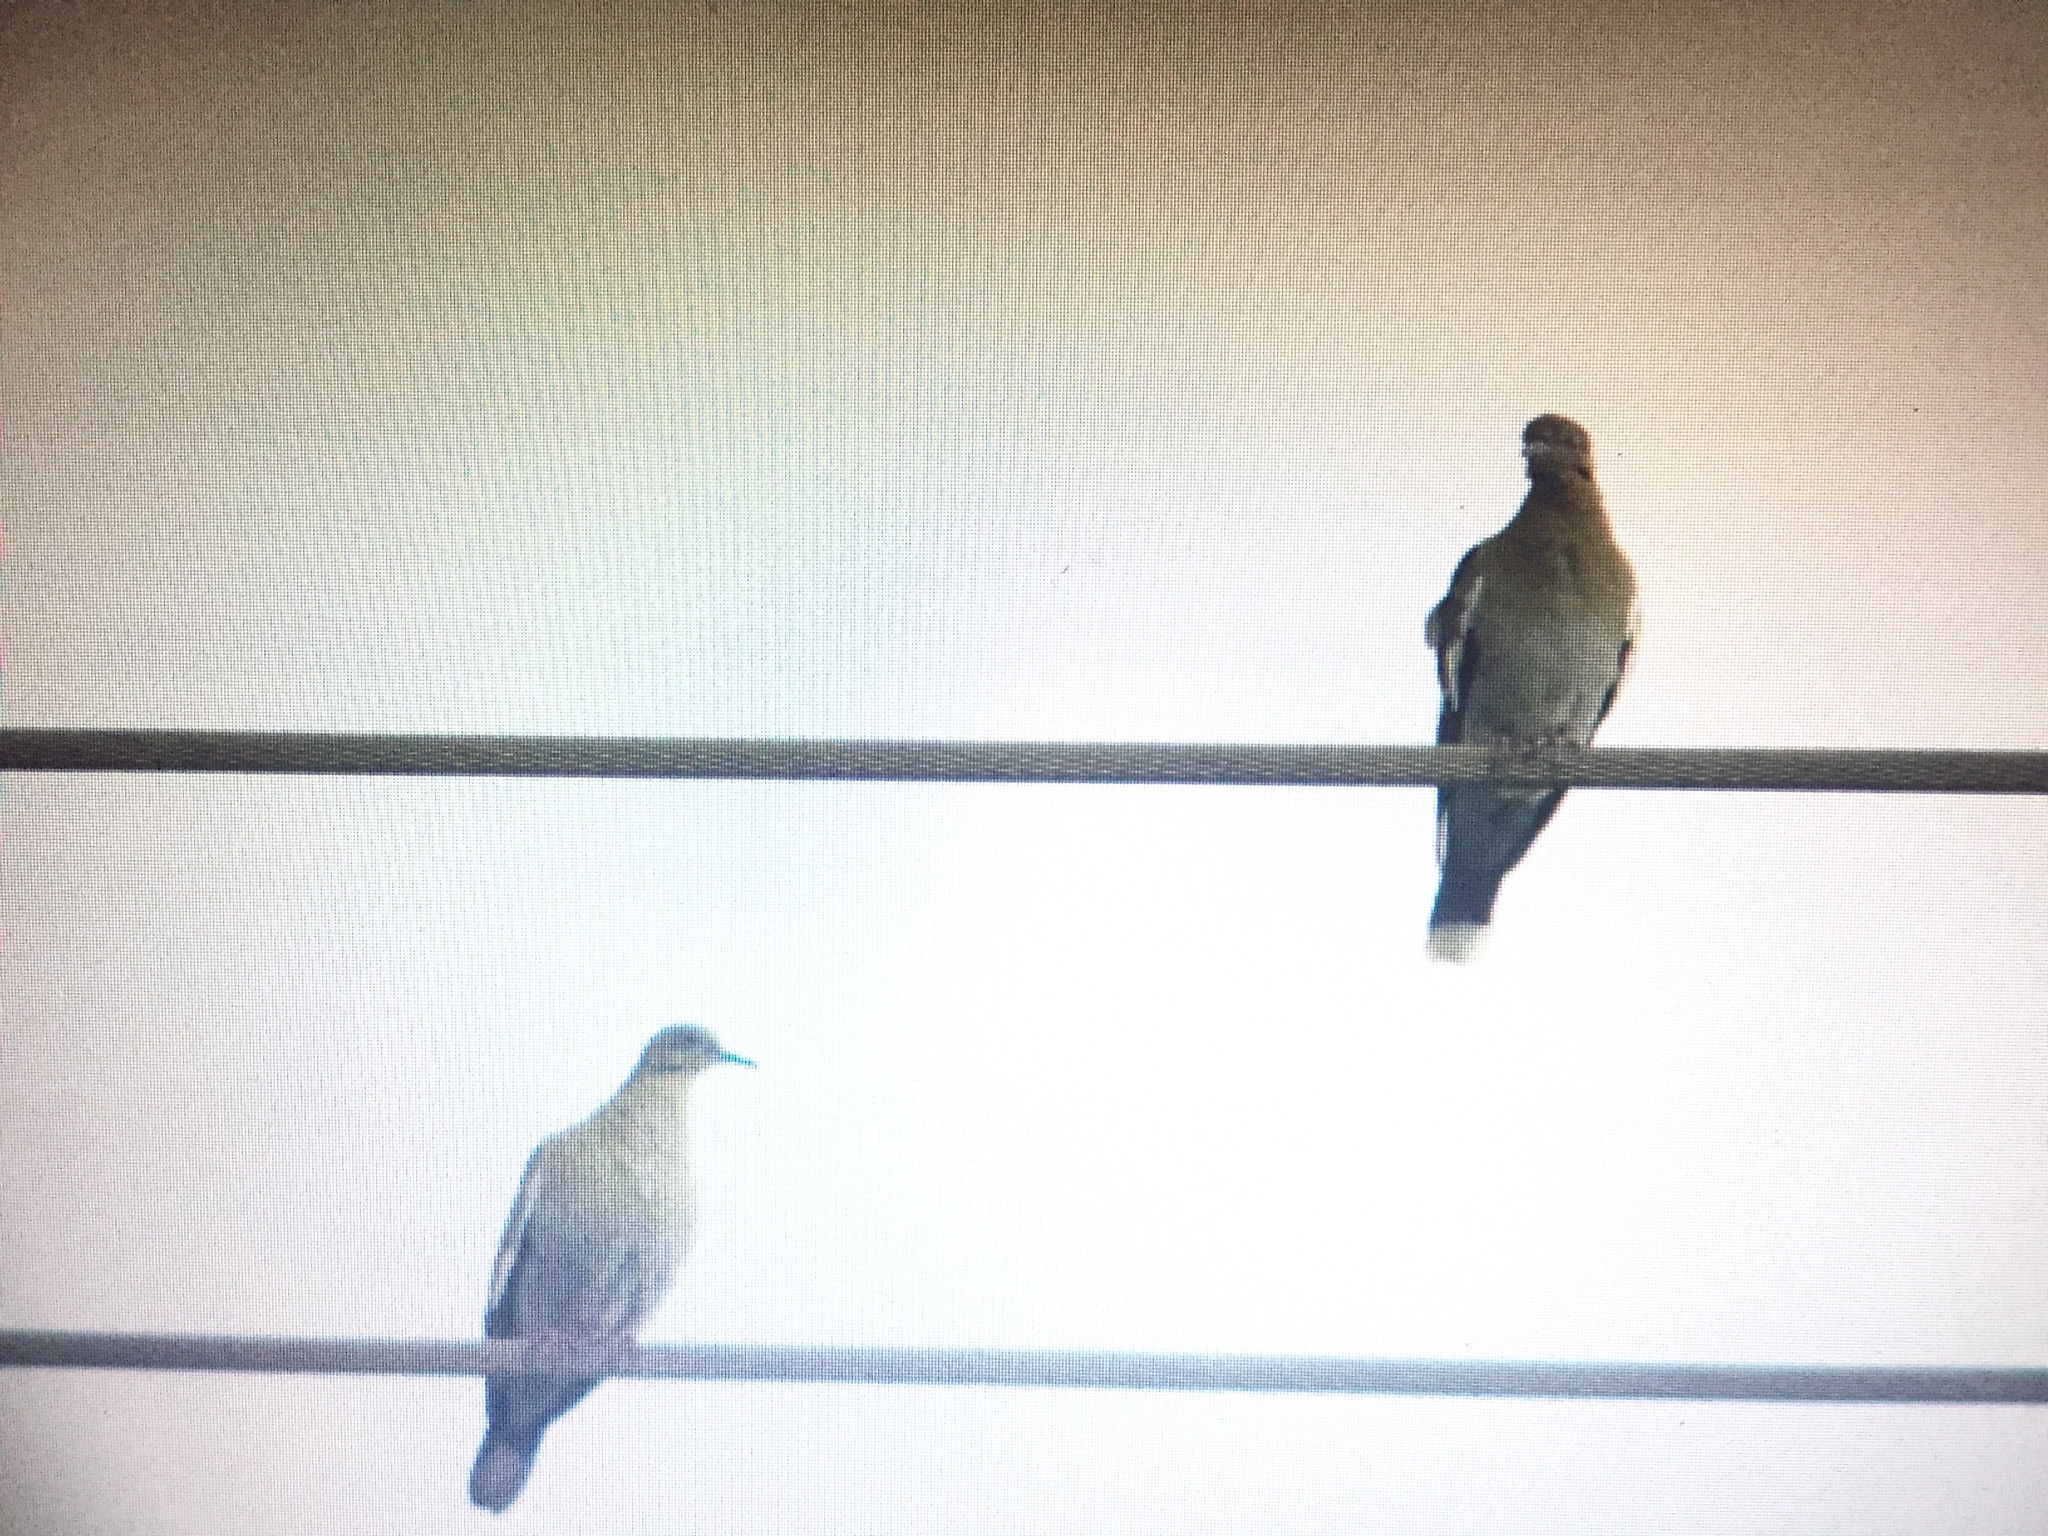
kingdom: Animalia
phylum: Chordata
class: Aves
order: Columbiformes
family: Columbidae
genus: Zenaida
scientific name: Zenaida asiatica
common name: White-winged dove
